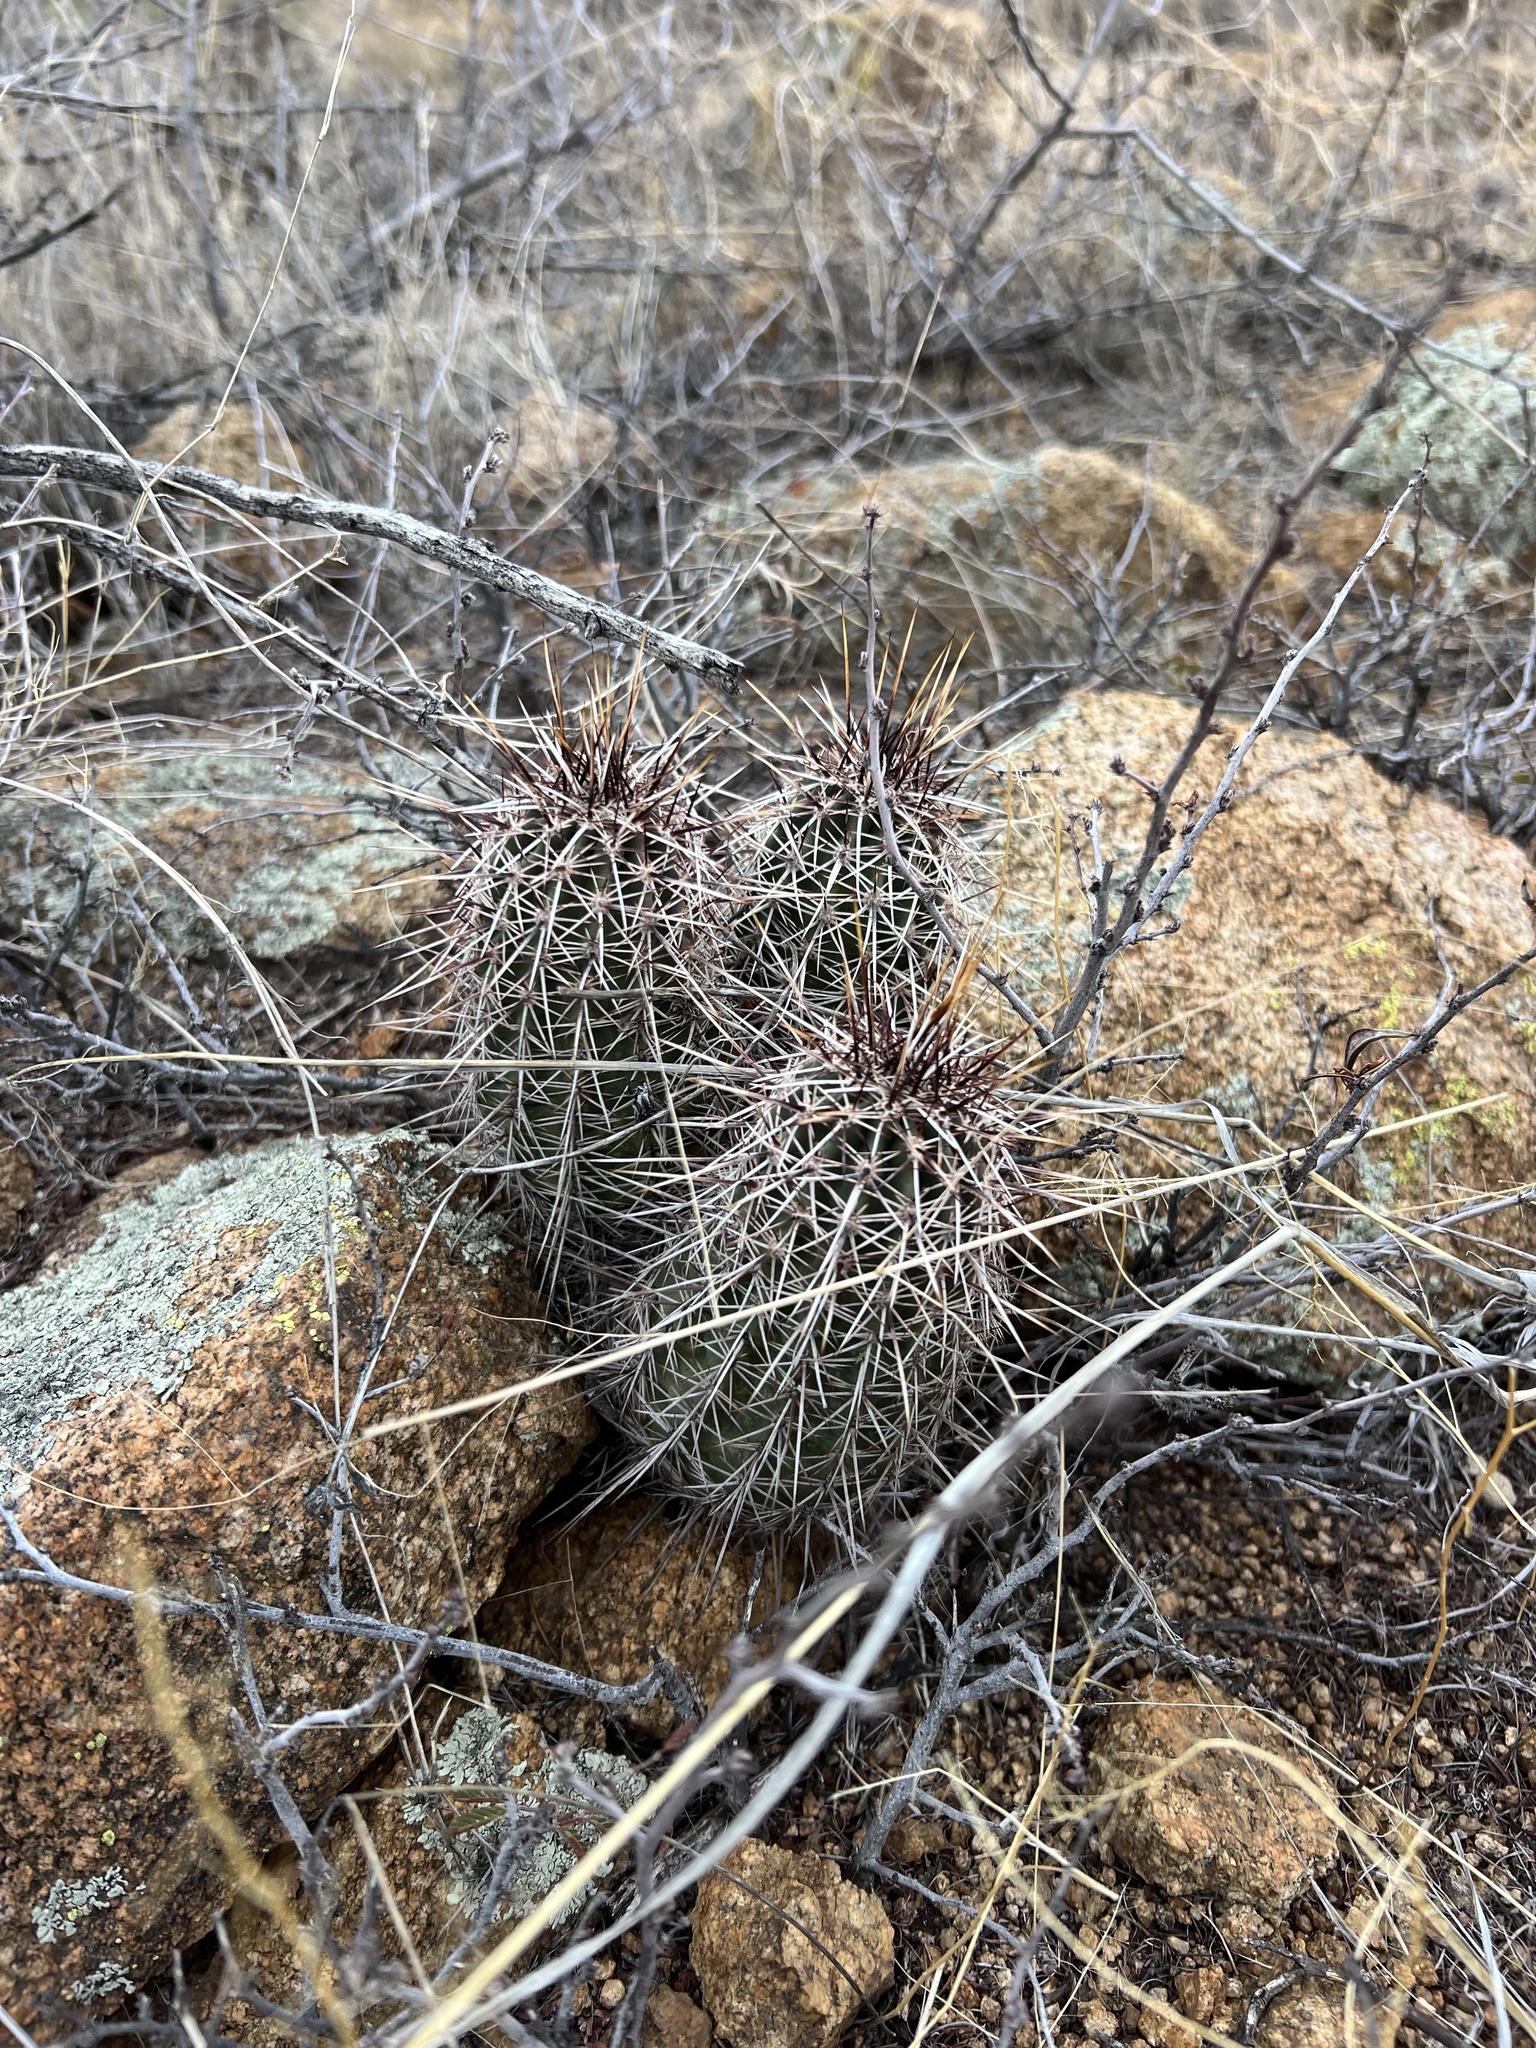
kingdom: Plantae
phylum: Tracheophyta
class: Magnoliopsida
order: Caryophyllales
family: Cactaceae
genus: Echinocereus
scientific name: Echinocereus fasciculatus
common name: Bundle hedgehog
